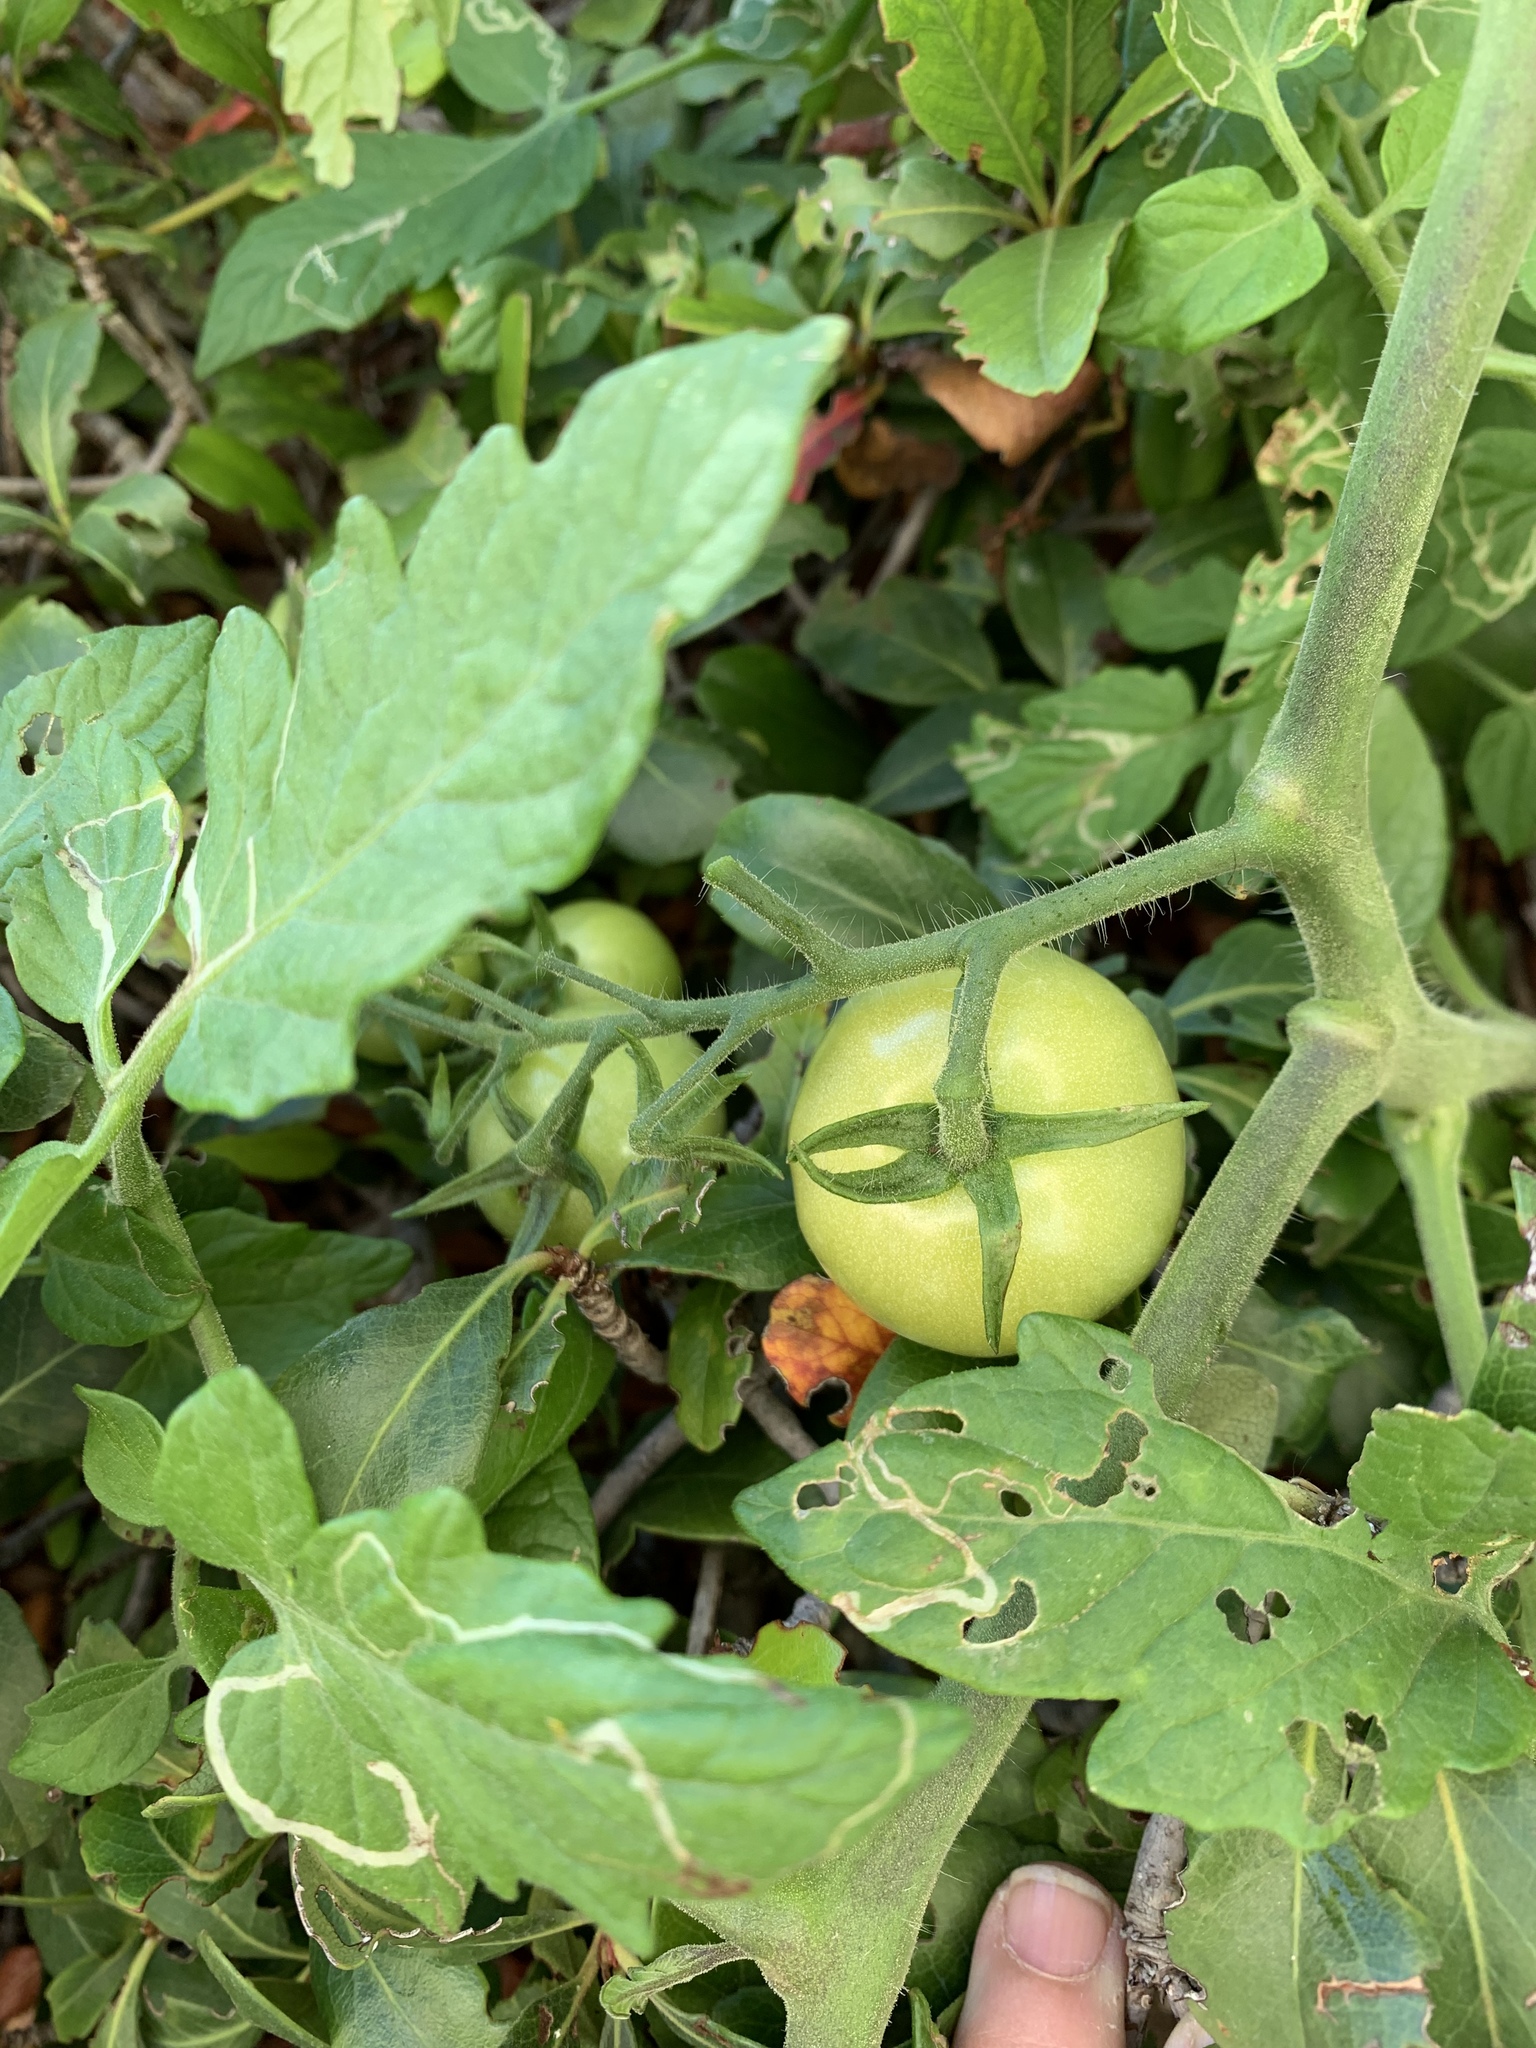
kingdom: Plantae
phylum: Tracheophyta
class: Magnoliopsida
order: Solanales
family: Solanaceae
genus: Solanum
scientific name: Solanum lycopersicum
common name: Garden tomato
